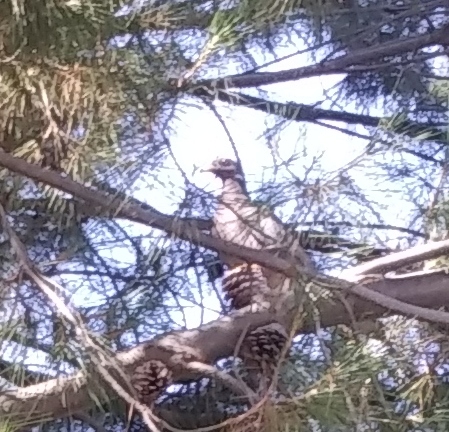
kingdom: Animalia
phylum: Chordata
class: Aves
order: Columbiformes
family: Columbidae
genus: Patagioenas
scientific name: Patagioenas fasciata
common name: Band-tailed pigeon
